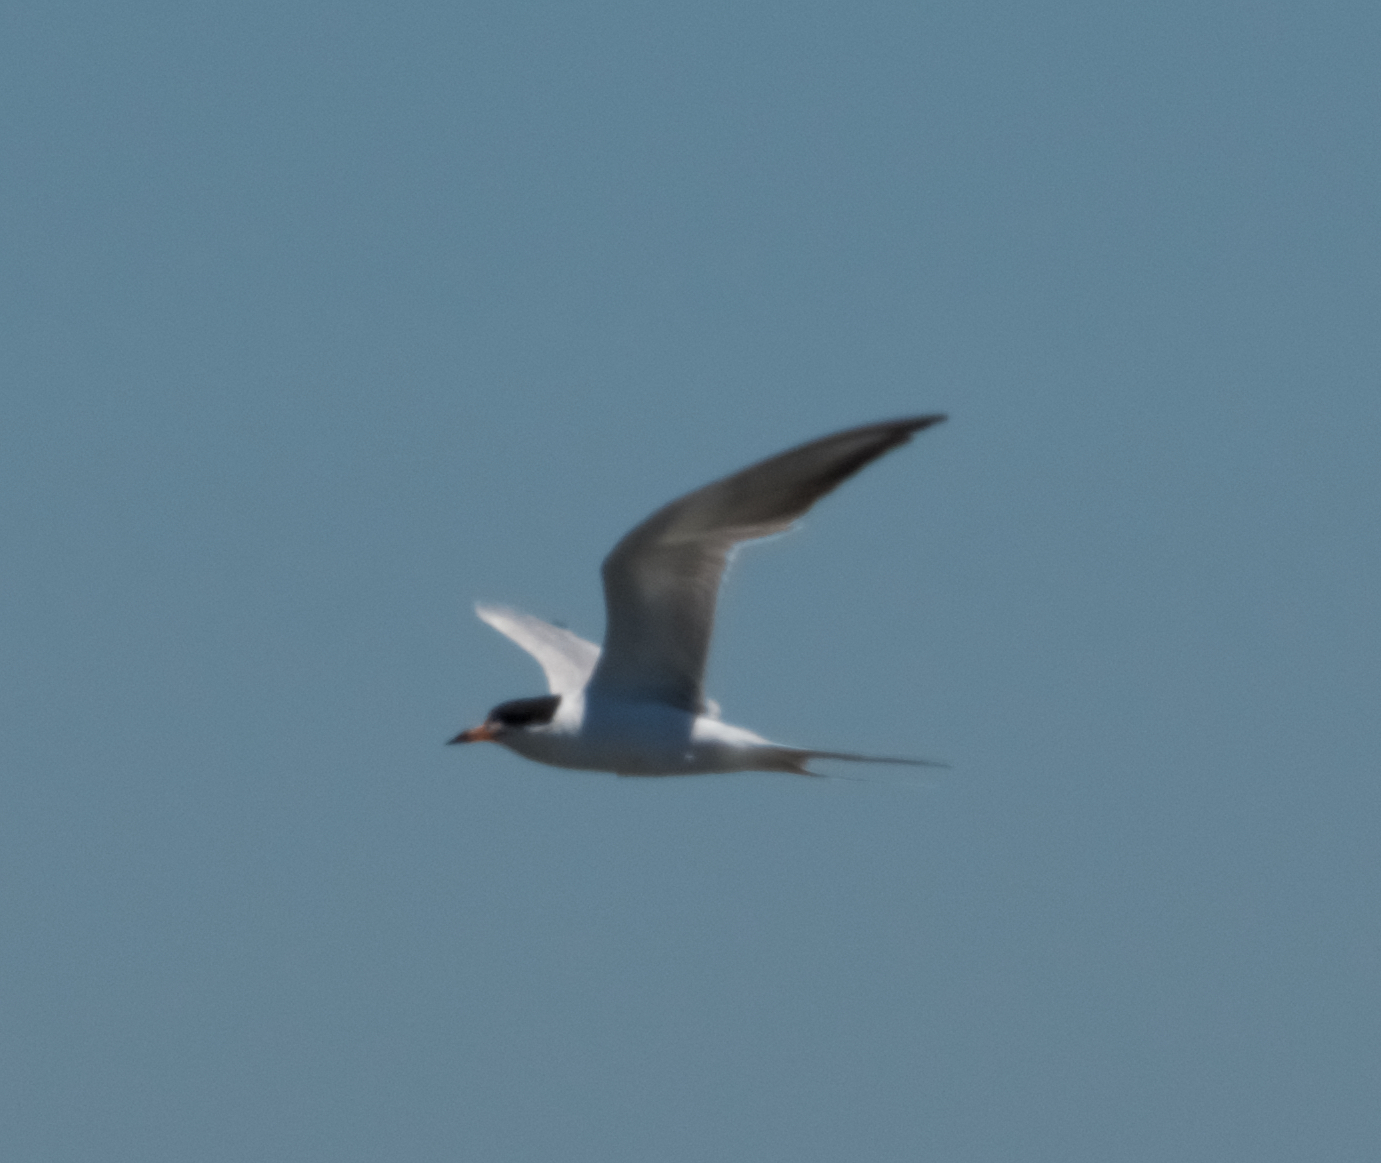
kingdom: Animalia
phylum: Chordata
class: Aves
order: Charadriiformes
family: Laridae
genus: Sterna
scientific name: Sterna forsteri
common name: Forster's tern
